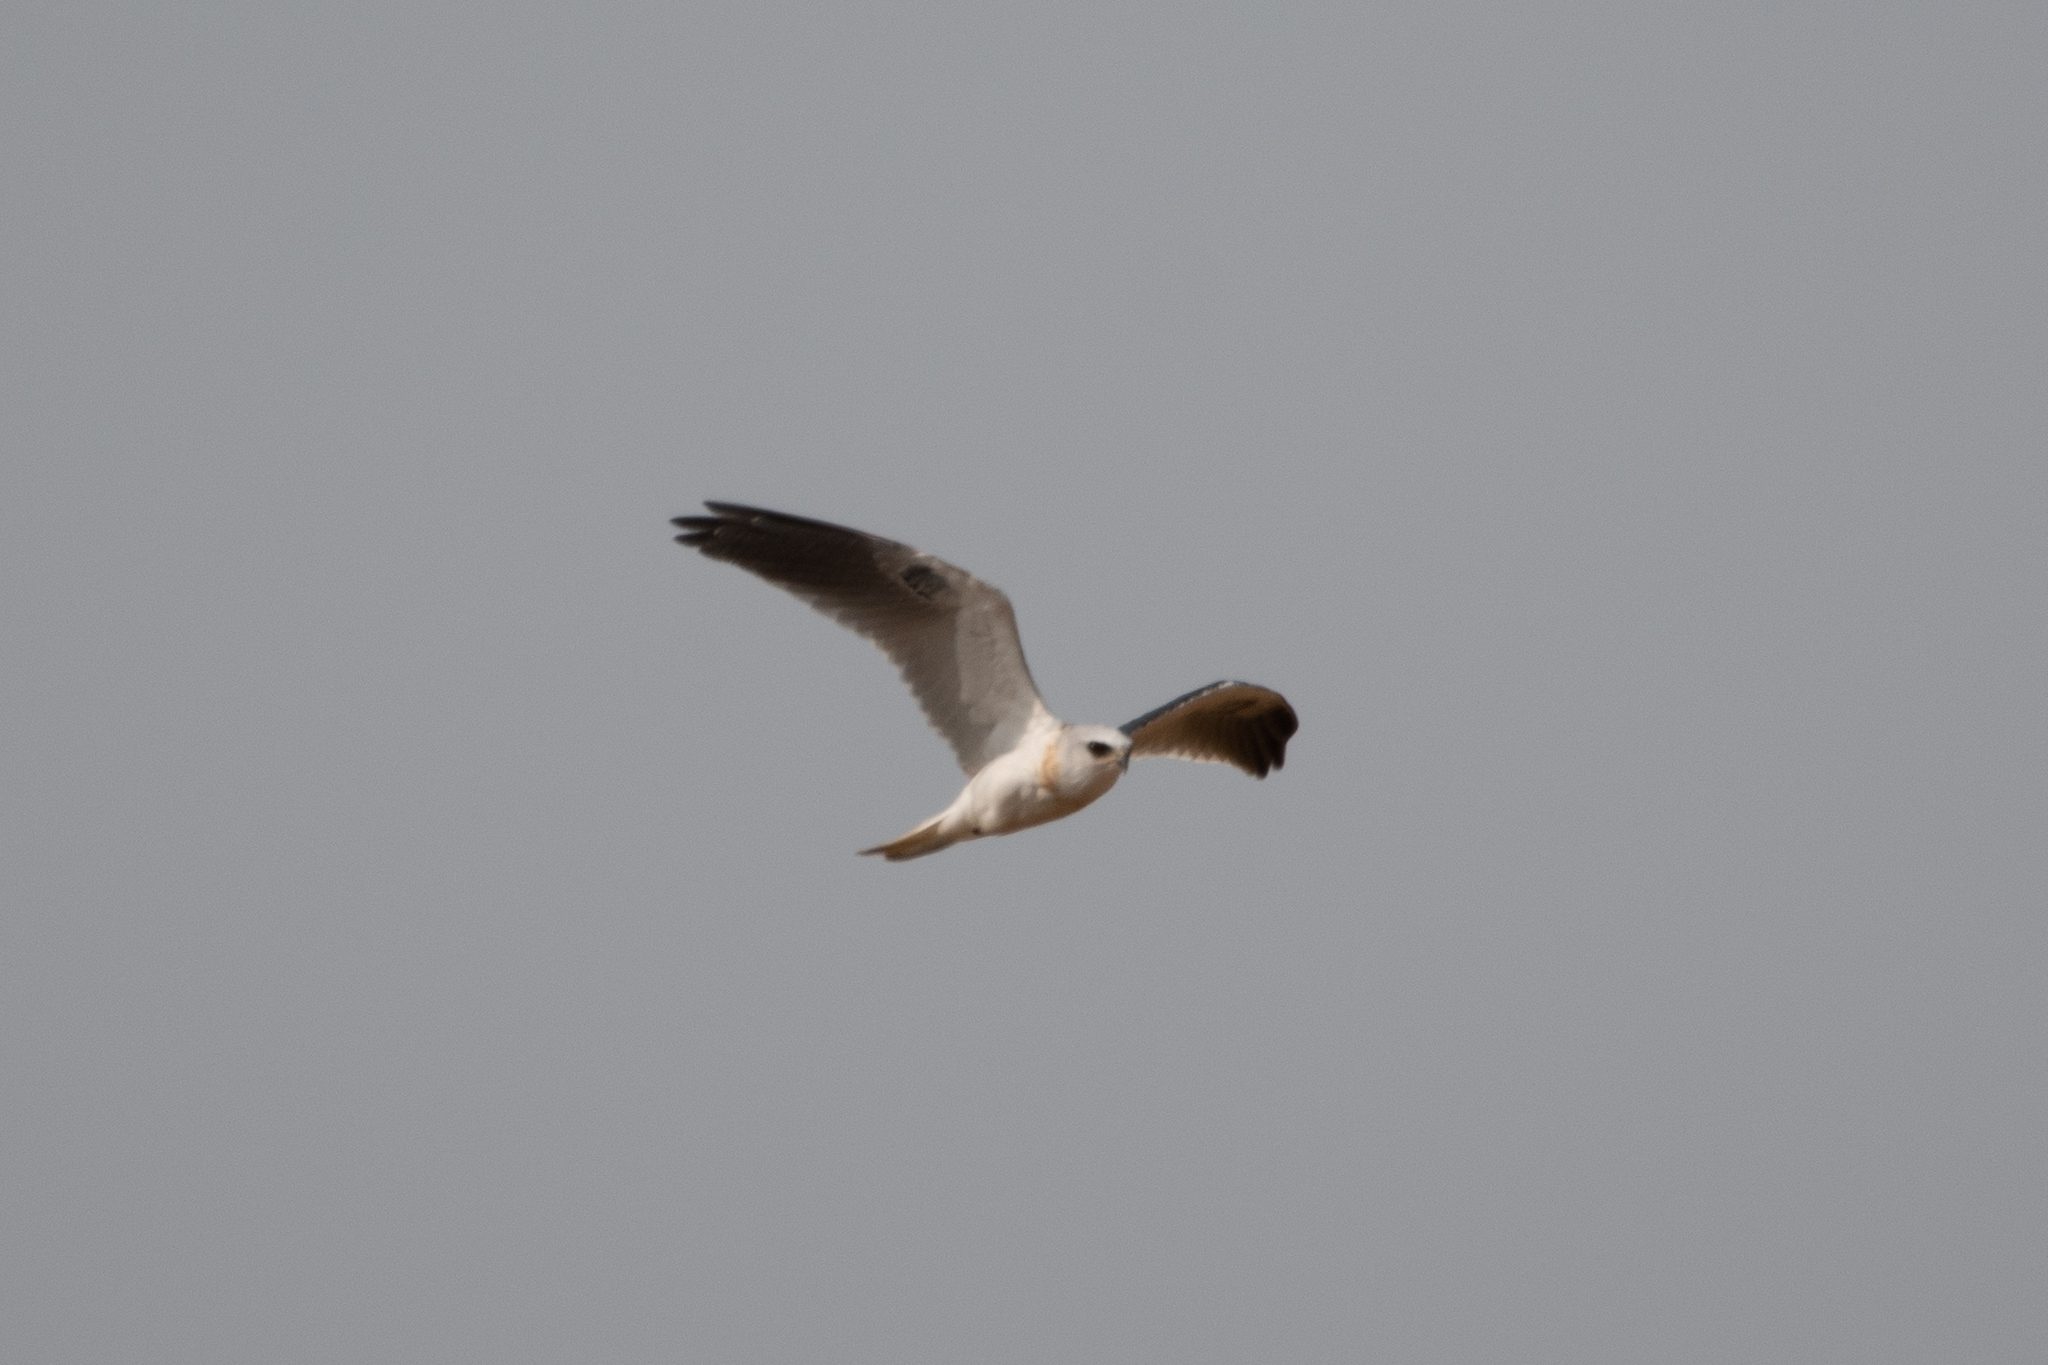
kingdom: Animalia
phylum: Chordata
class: Aves
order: Accipitriformes
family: Accipitridae
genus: Elanus
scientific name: Elanus leucurus
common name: White-tailed kite
